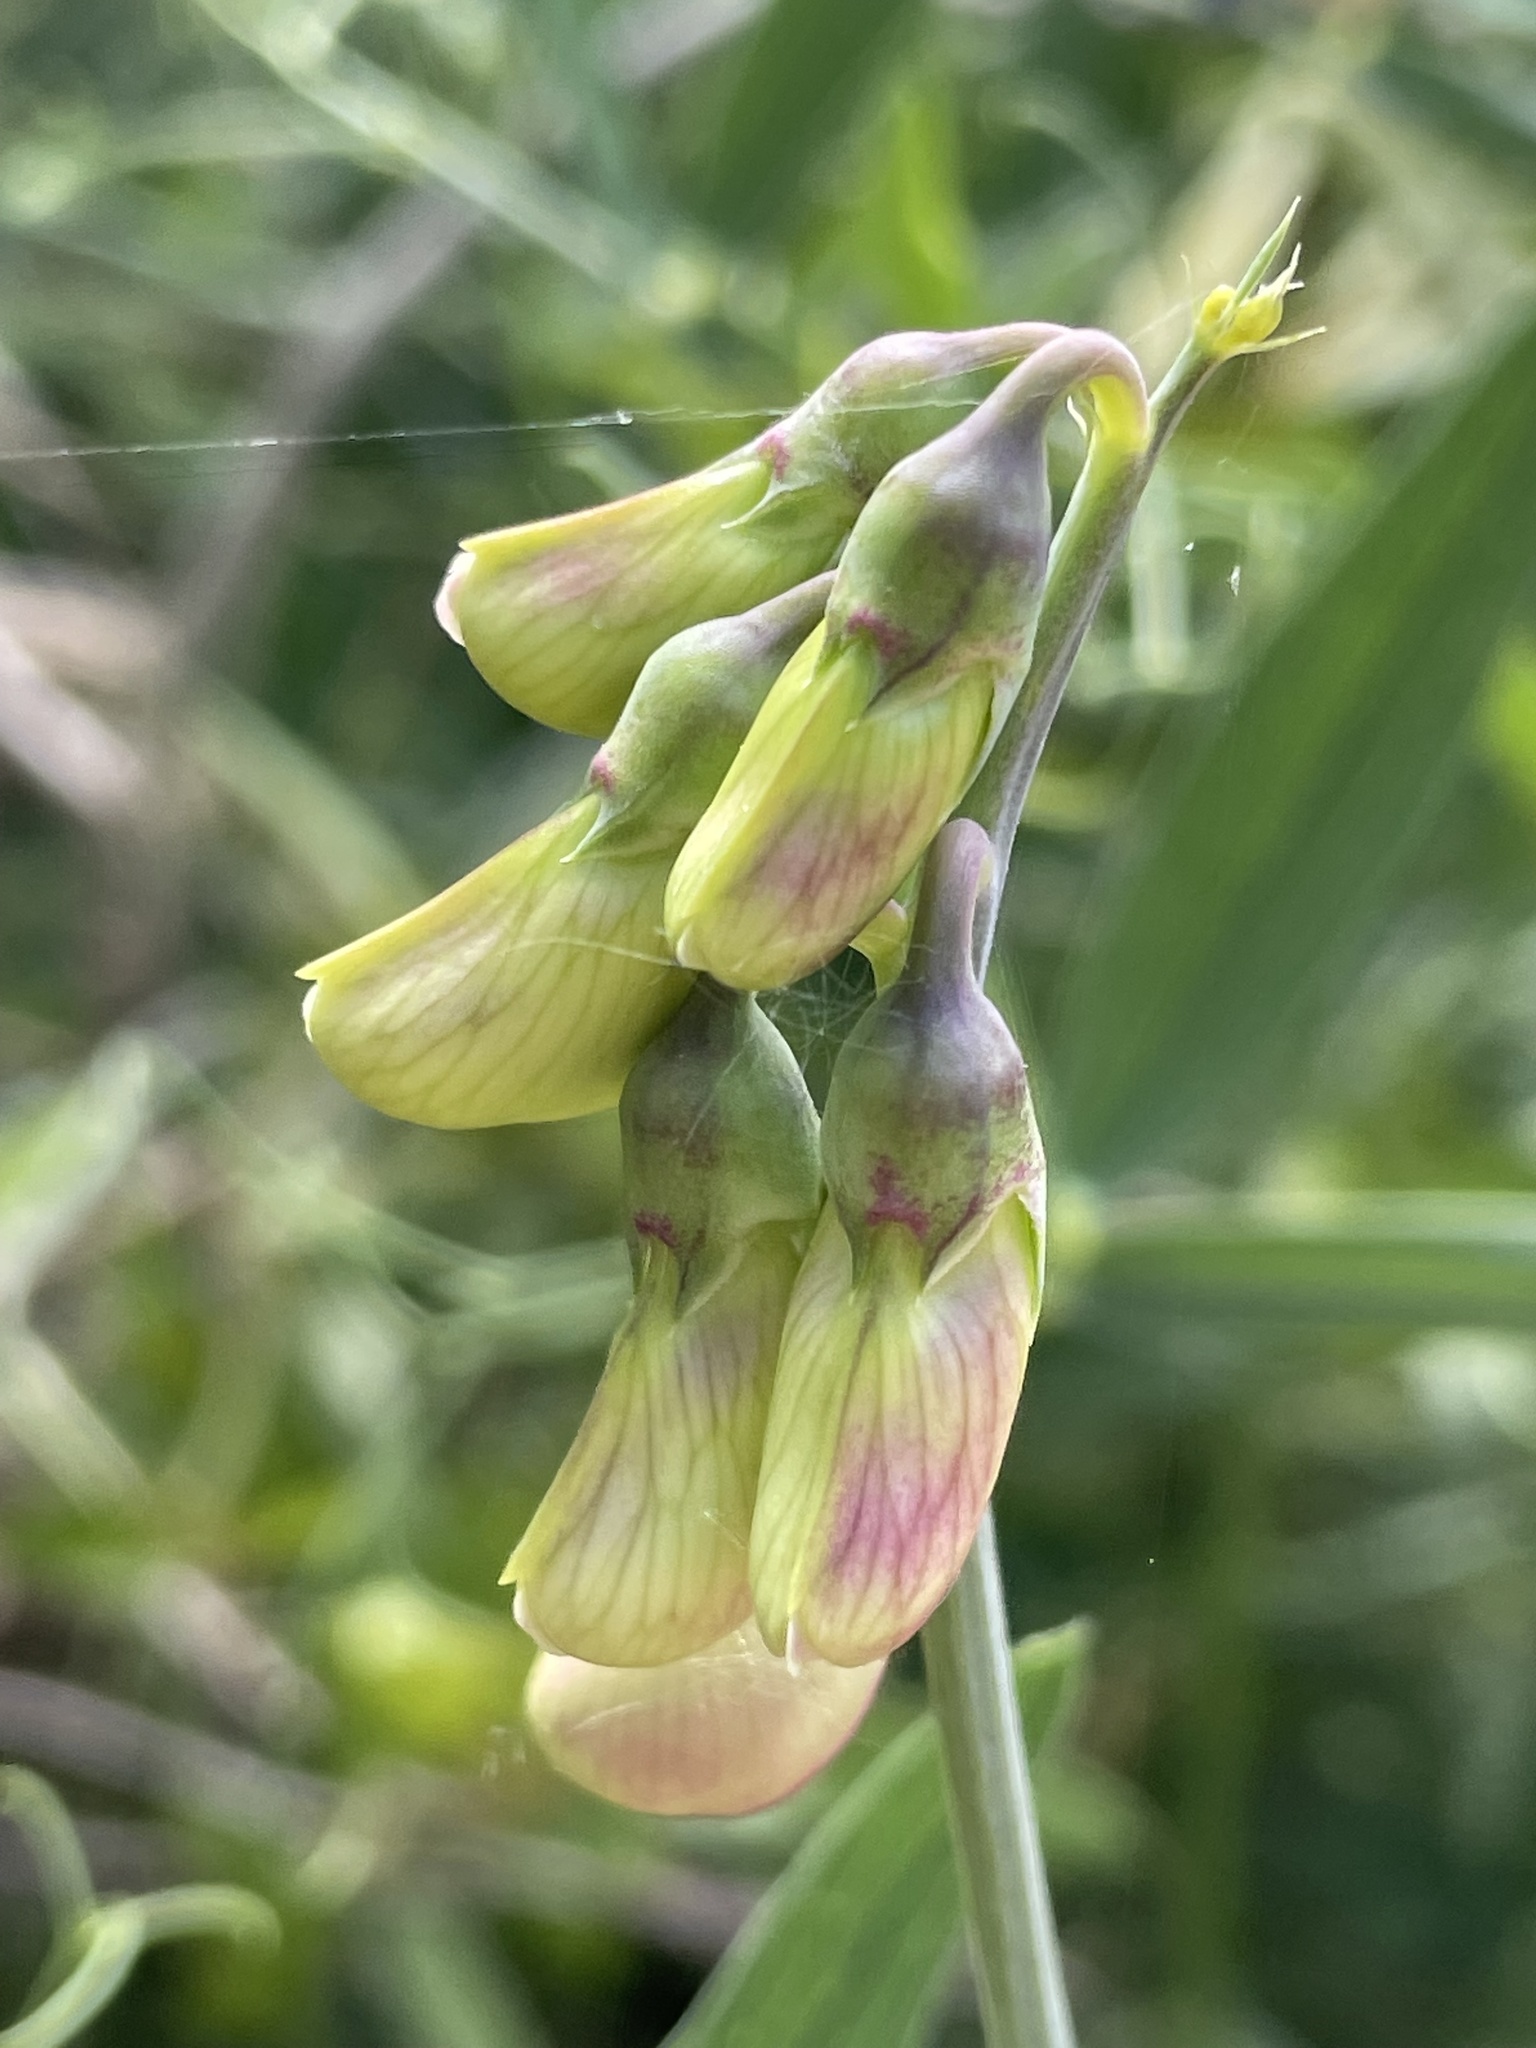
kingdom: Plantae
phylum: Tracheophyta
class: Magnoliopsida
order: Fabales
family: Fabaceae
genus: Lathyrus
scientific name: Lathyrus latifolius
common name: Perennial pea
